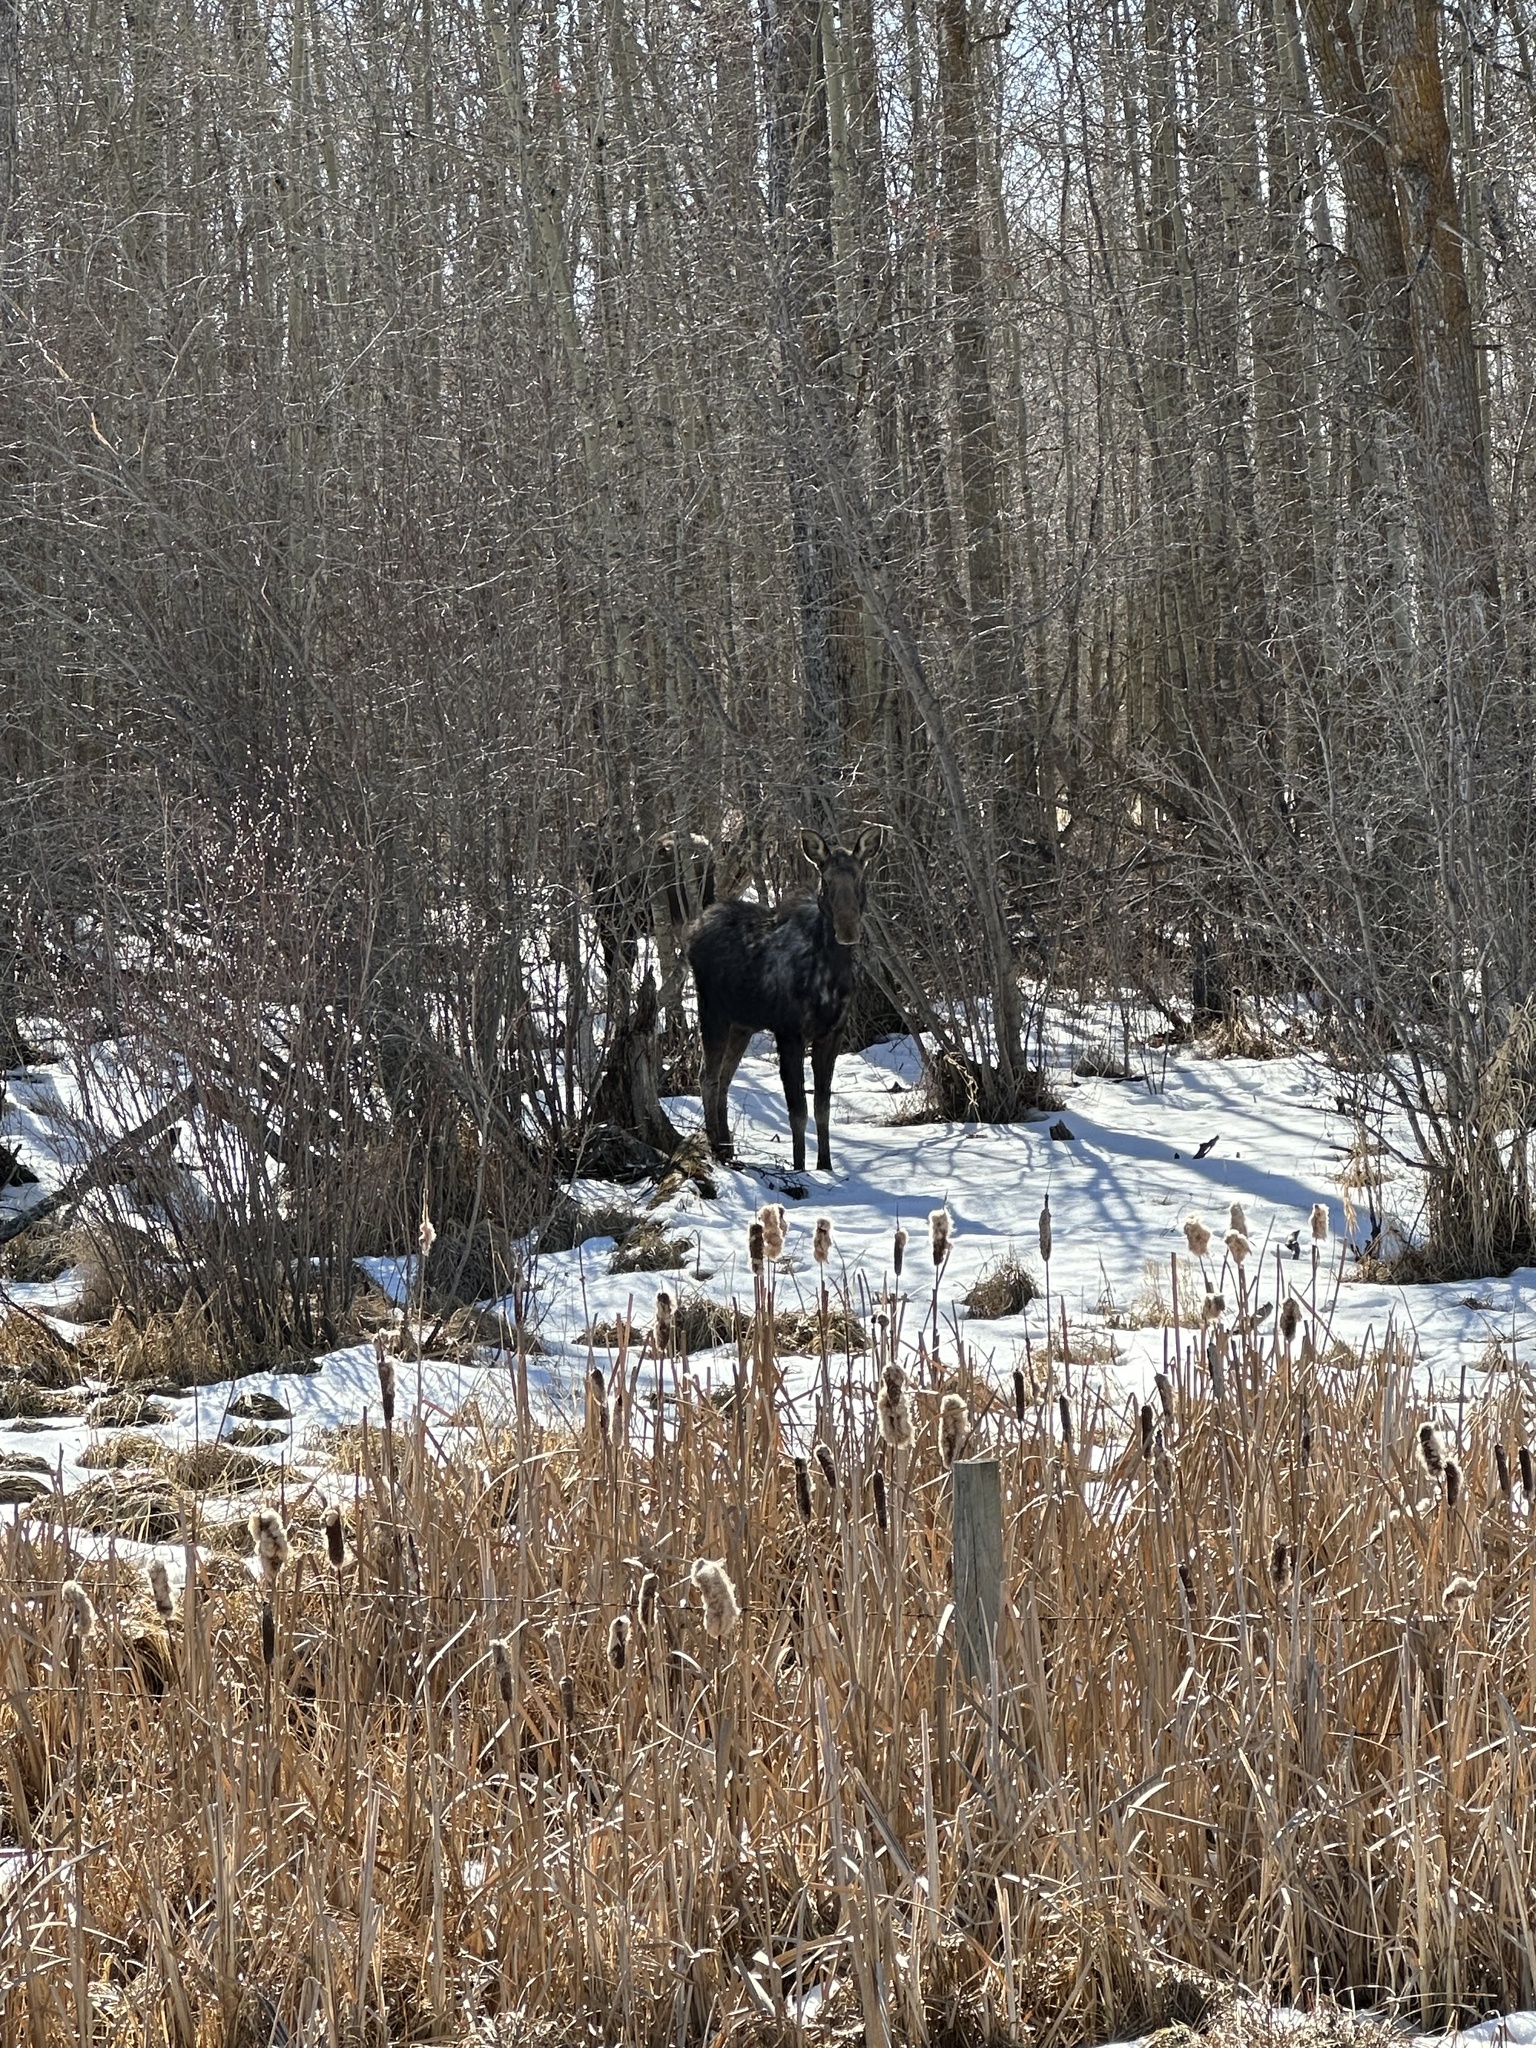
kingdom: Animalia
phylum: Chordata
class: Mammalia
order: Artiodactyla
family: Cervidae
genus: Alces
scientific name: Alces alces
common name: Moose
